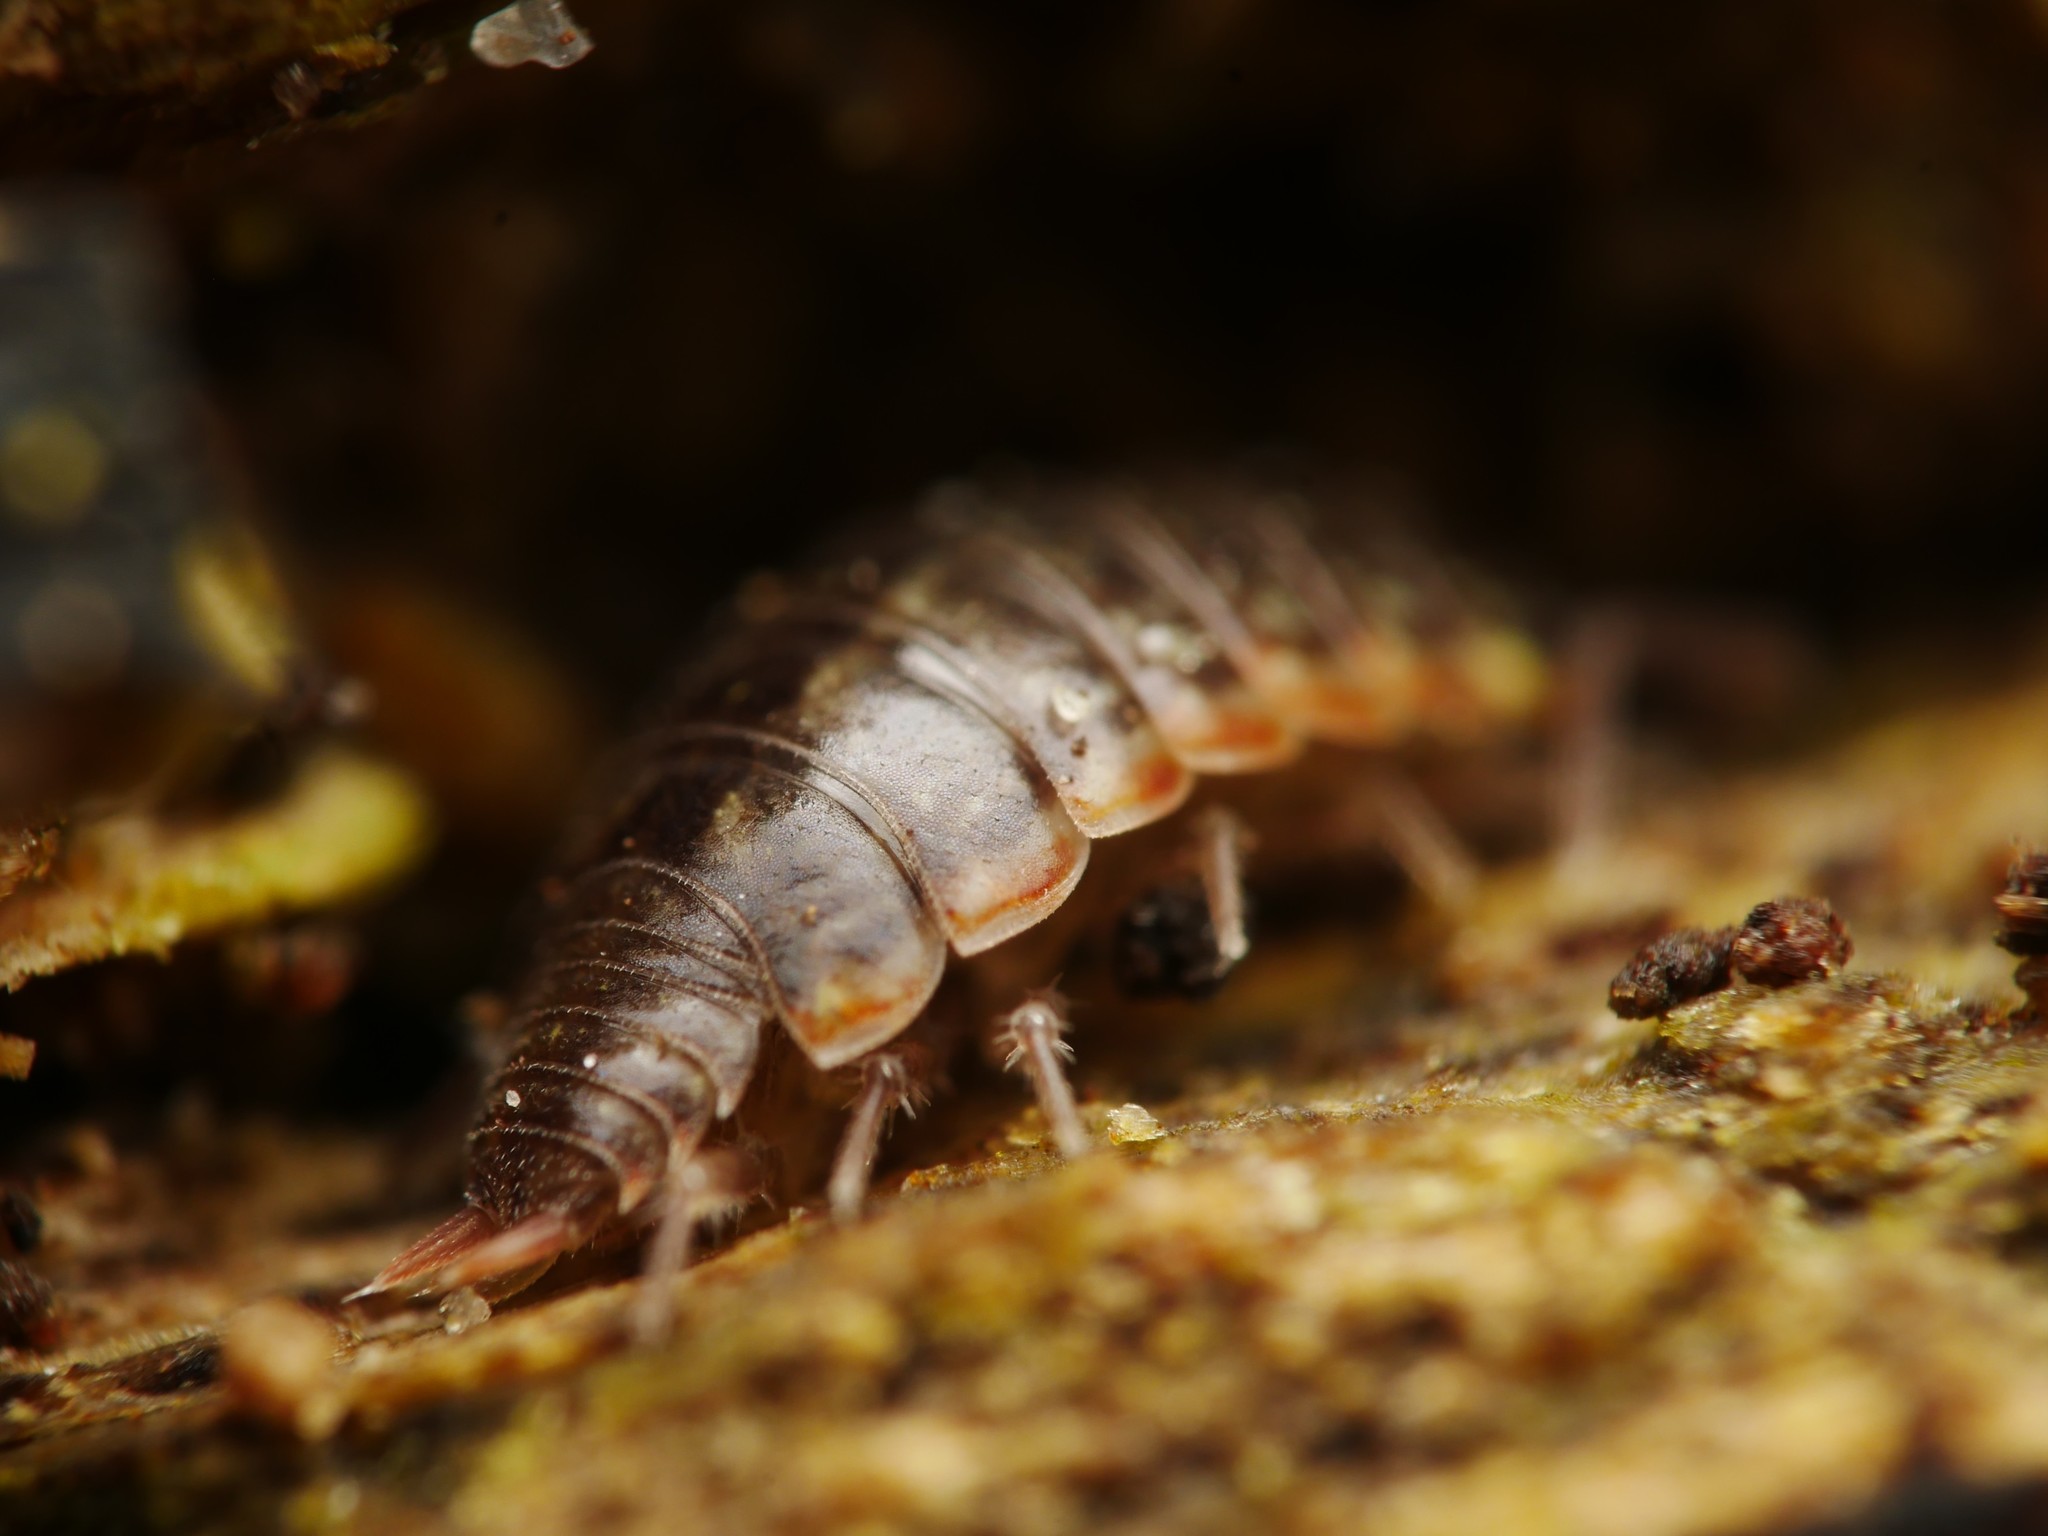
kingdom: Animalia
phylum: Arthropoda
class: Malacostraca
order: Isopoda
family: Philosciidae
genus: Philoscia
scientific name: Philoscia muscorum
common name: Common striped woodlouse
